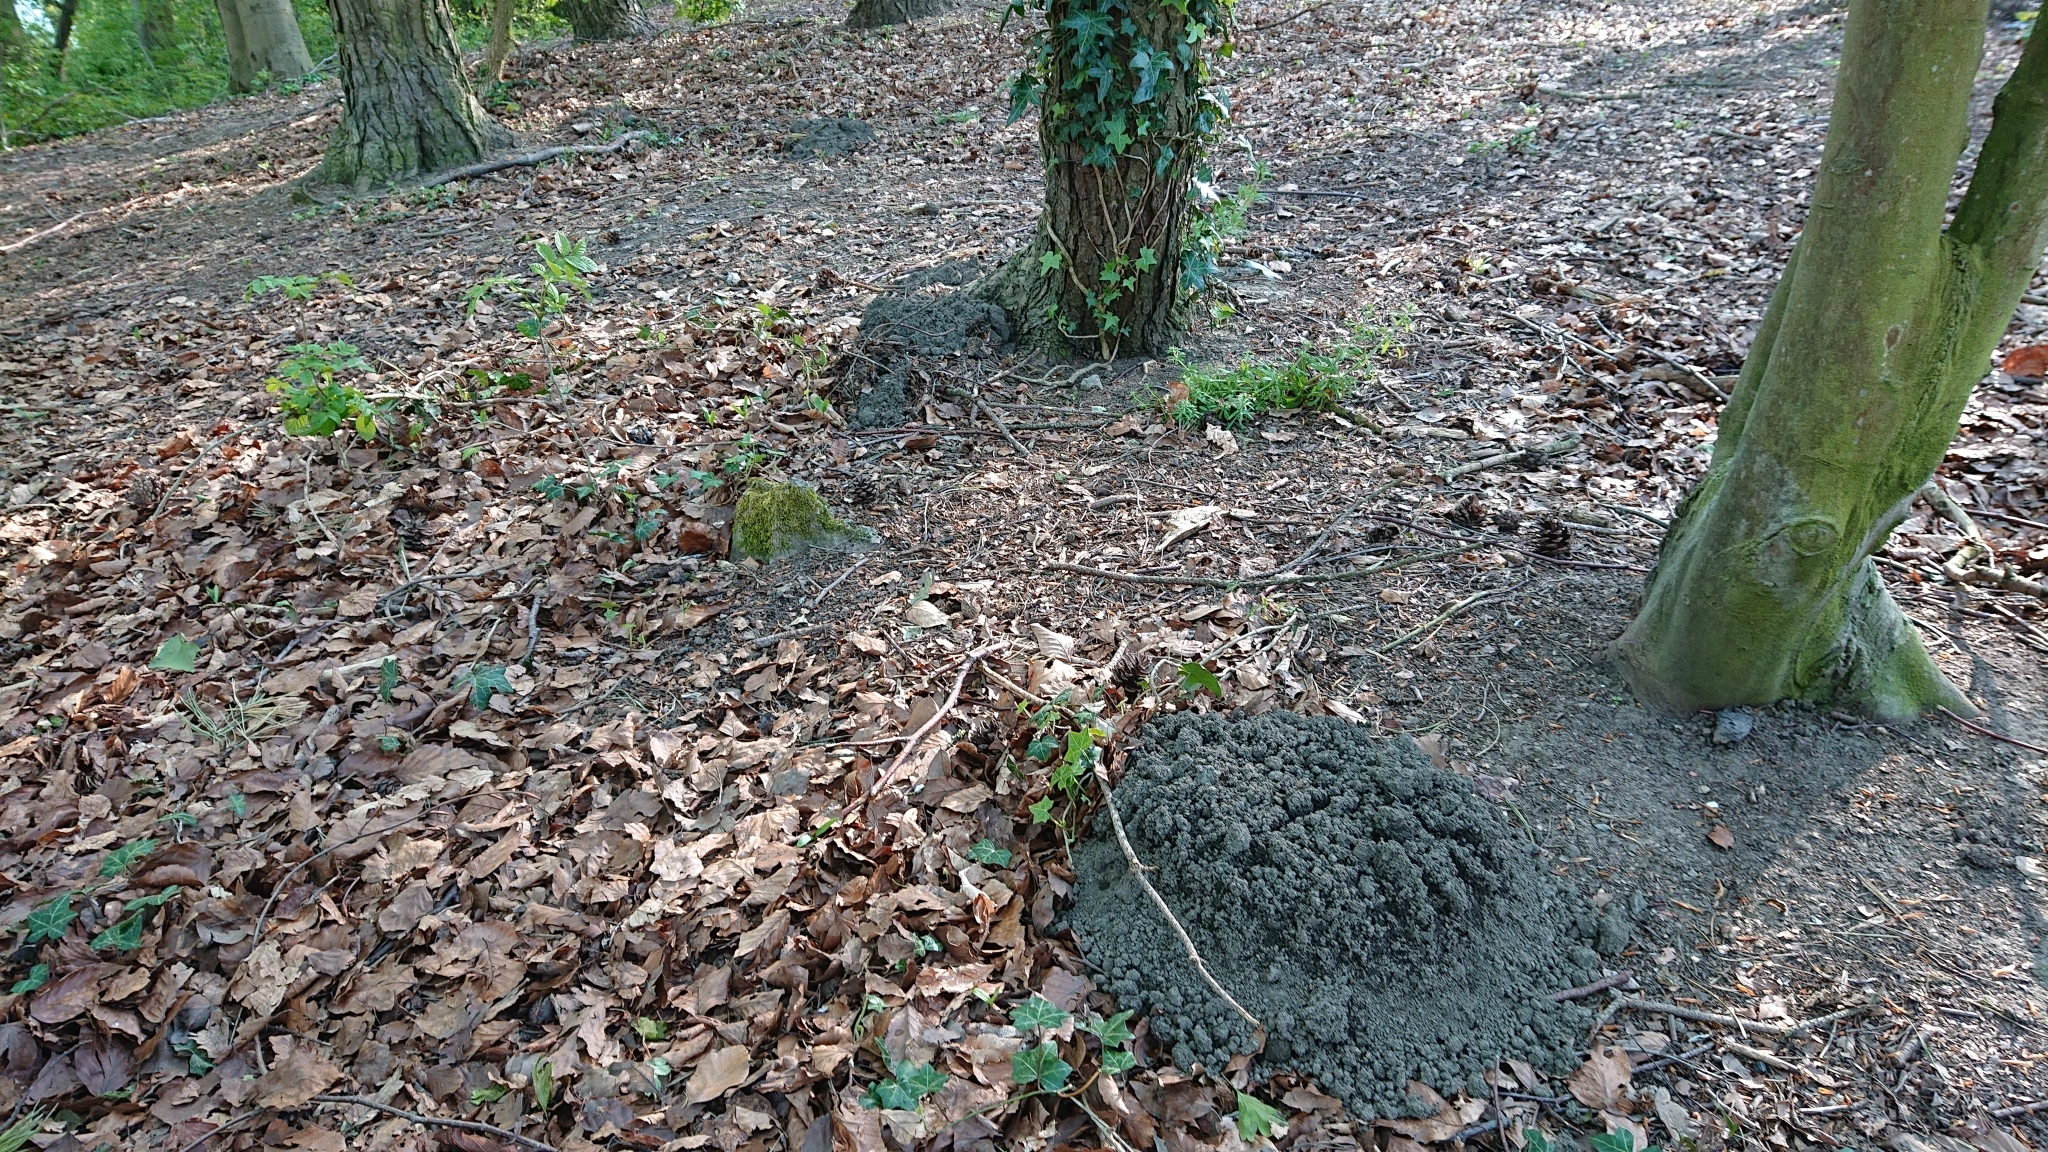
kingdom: Animalia
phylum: Chordata
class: Mammalia
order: Soricomorpha
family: Talpidae
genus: Talpa
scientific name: Talpa europaea
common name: European mole
